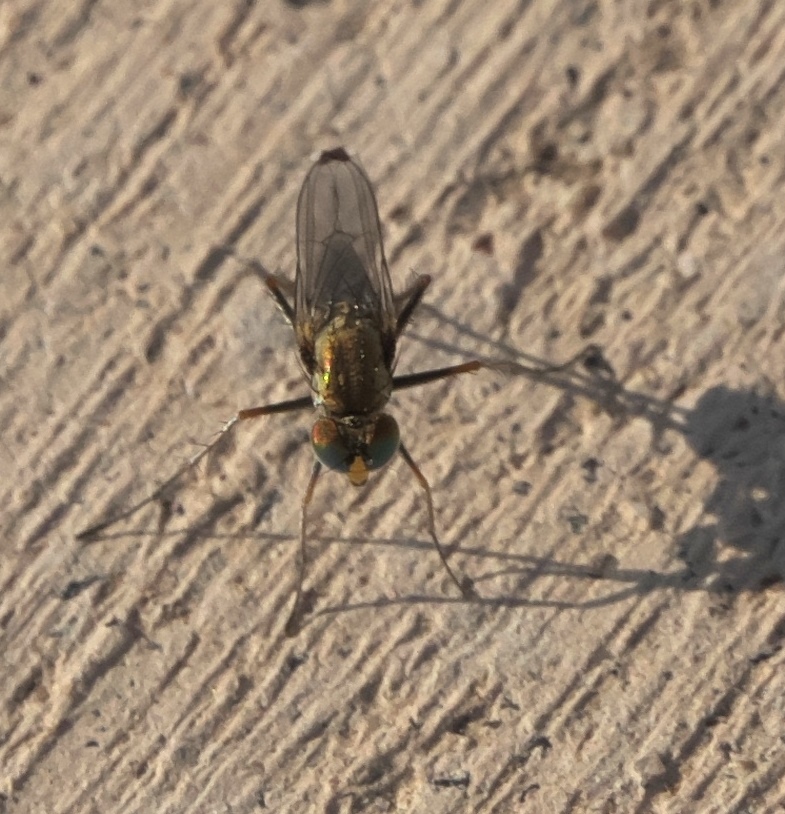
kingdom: Animalia
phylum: Arthropoda
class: Insecta
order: Diptera
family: Dolichopodidae
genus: Tachytrechus
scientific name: Tachytrechus vorax
